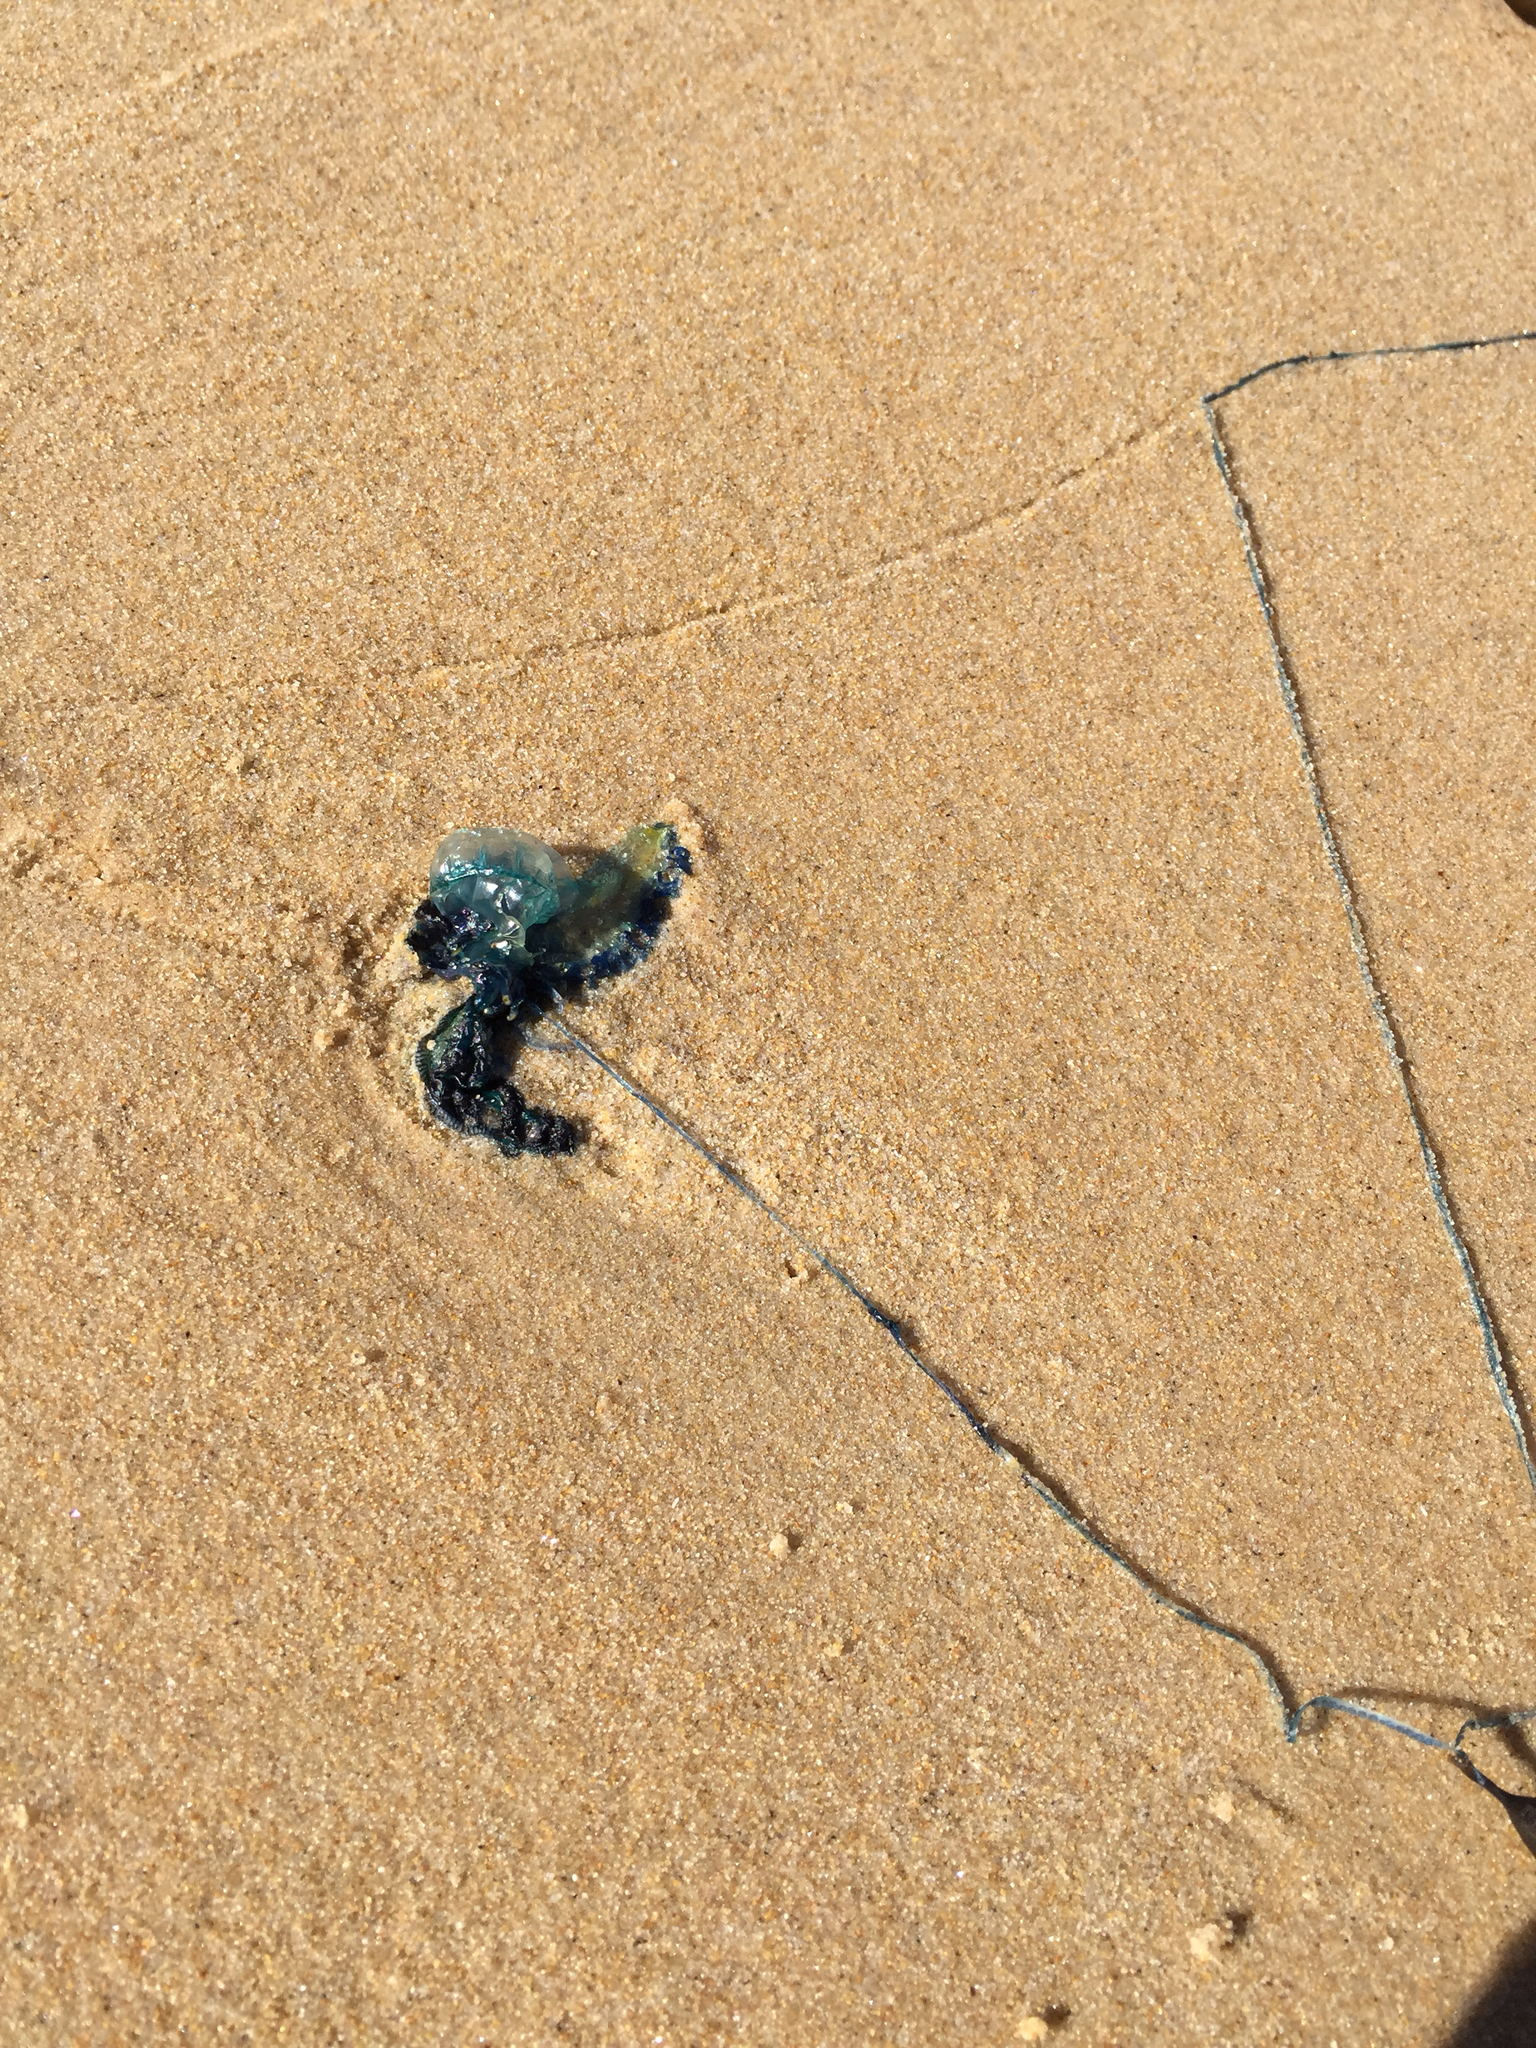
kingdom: Animalia
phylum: Cnidaria
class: Hydrozoa
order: Siphonophorae
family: Physaliidae
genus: Physalia
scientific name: Physalia physalis
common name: Portuguese man-of-war
